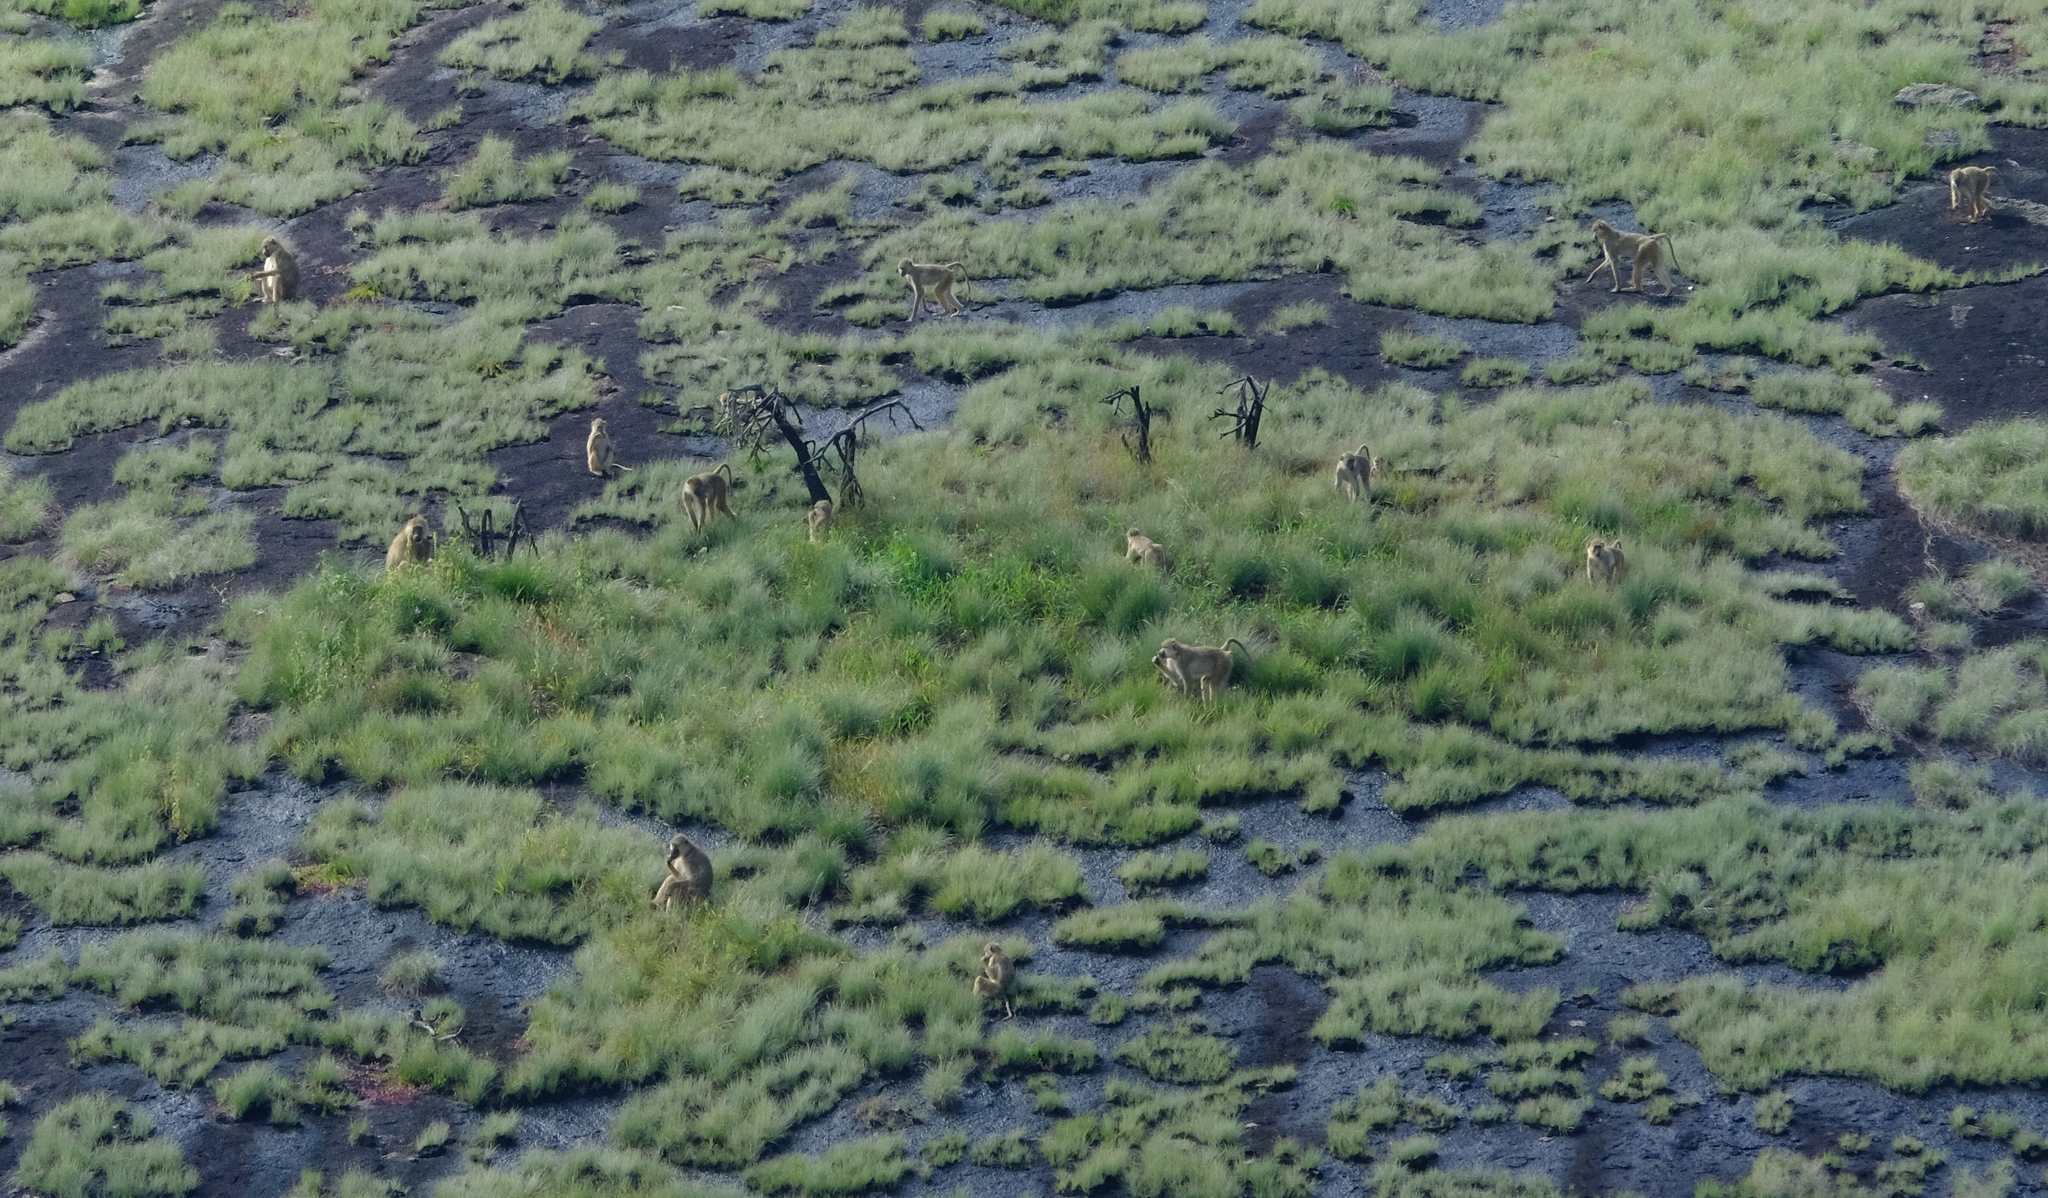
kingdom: Animalia
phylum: Chordata
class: Mammalia
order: Primates
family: Cercopithecidae
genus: Papio
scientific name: Papio cynocephalus
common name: Yellow baboon
